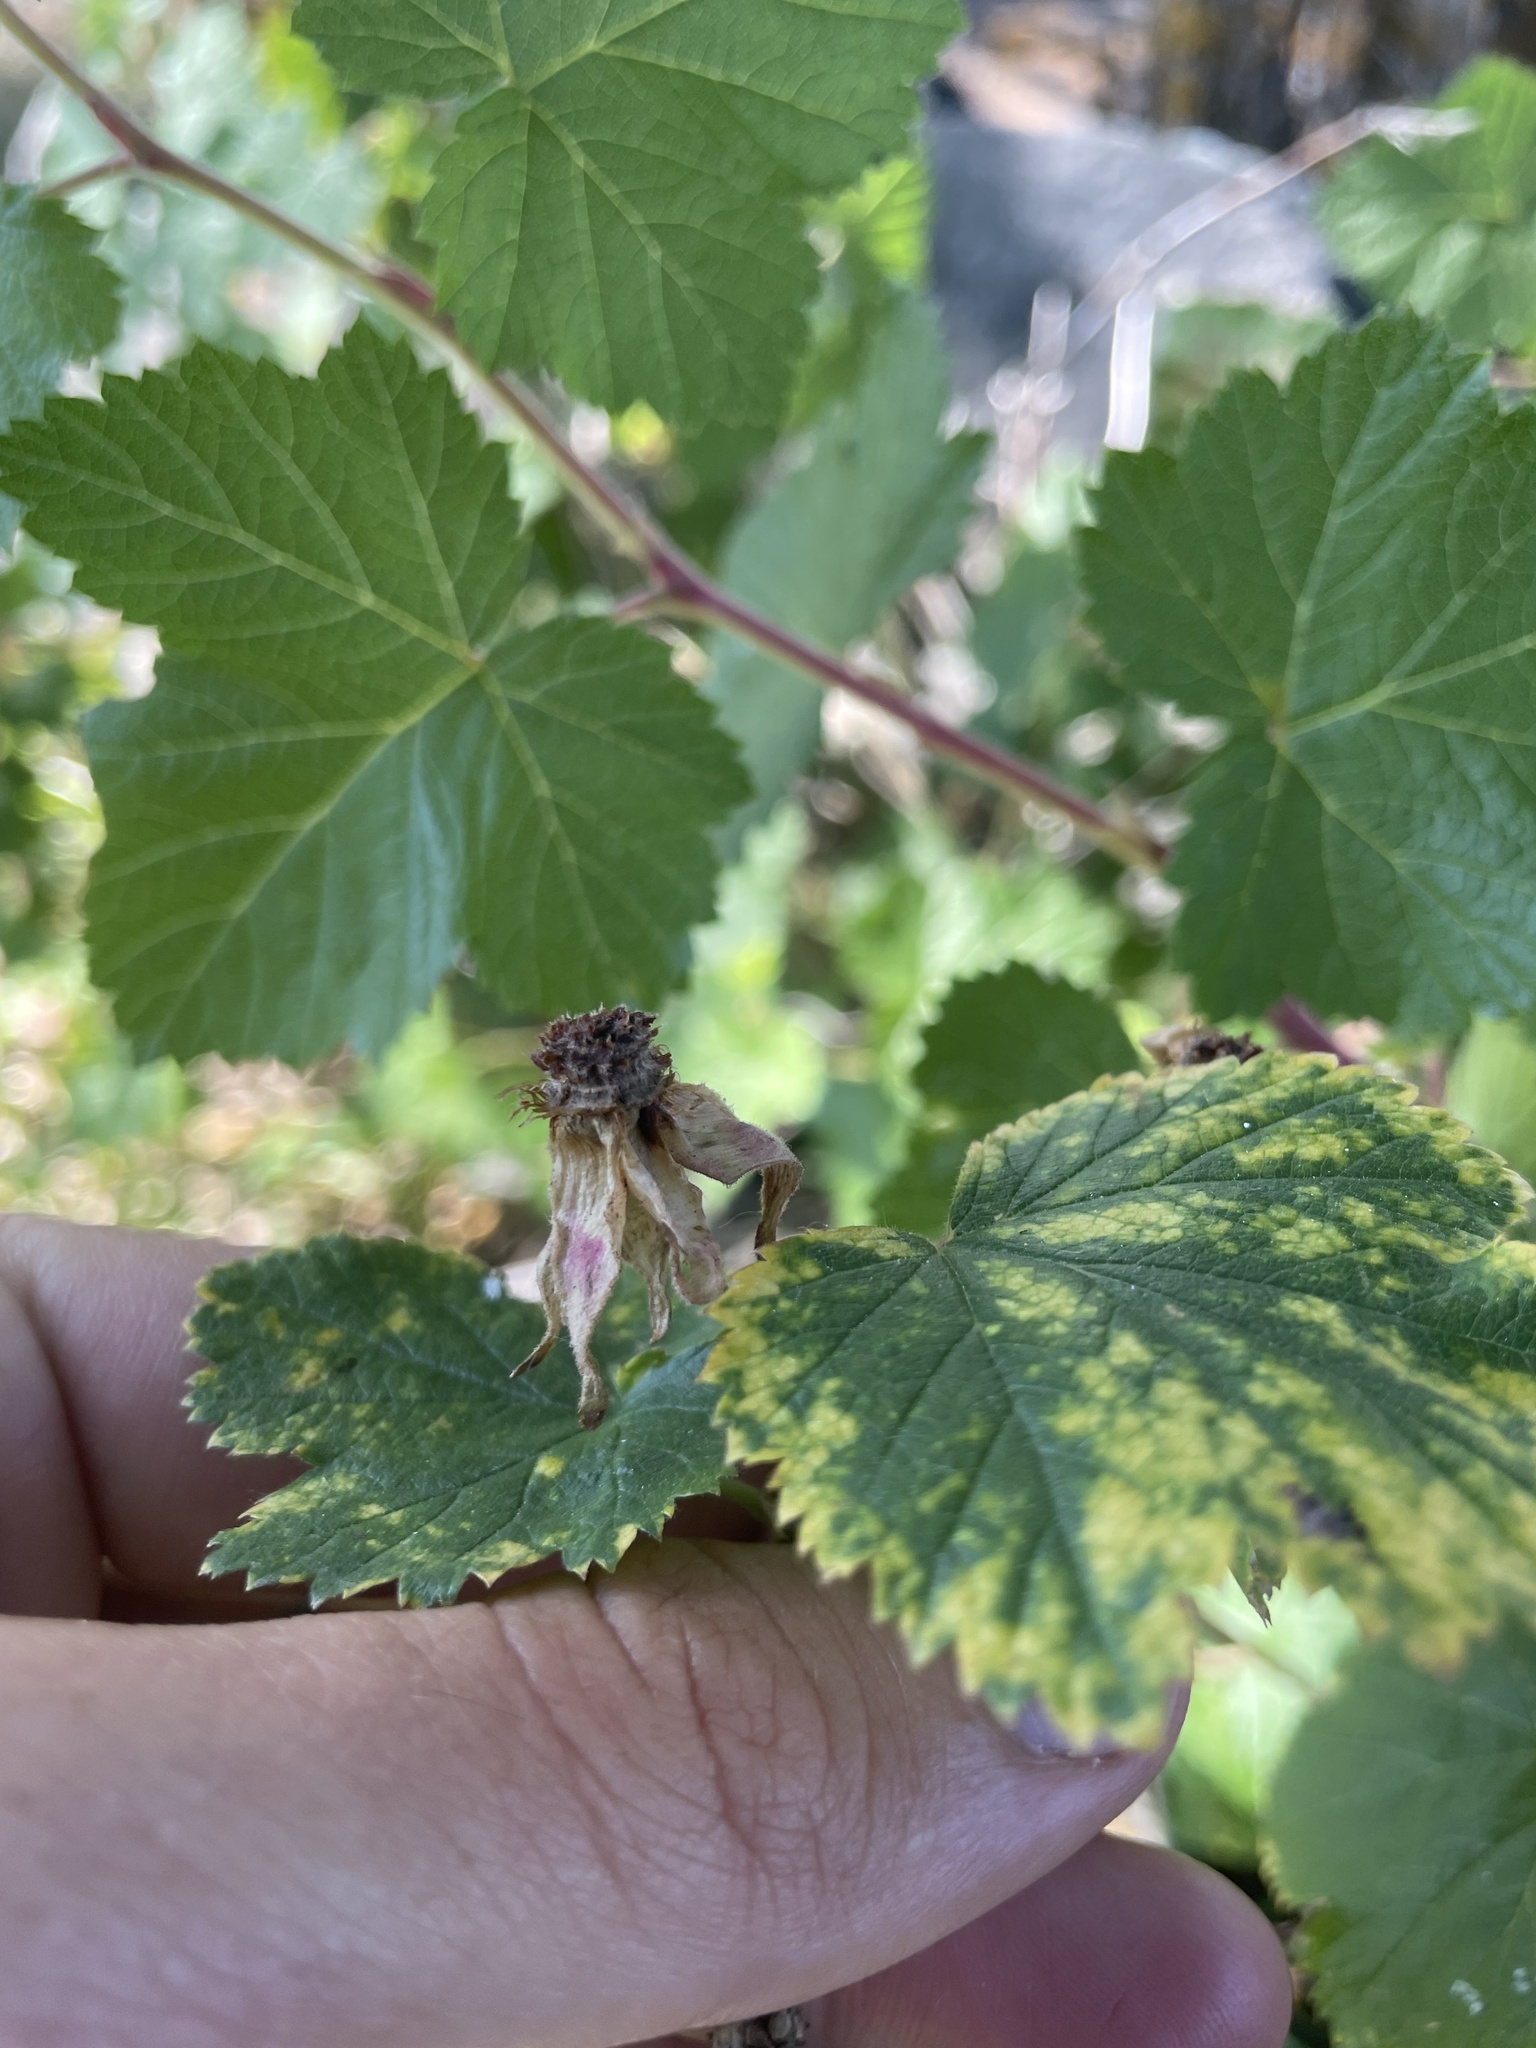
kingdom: Plantae
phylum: Tracheophyta
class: Magnoliopsida
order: Rosales
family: Rosaceae
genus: Rubus
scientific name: Rubus deliciosus
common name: Rocky mountain raspberry
